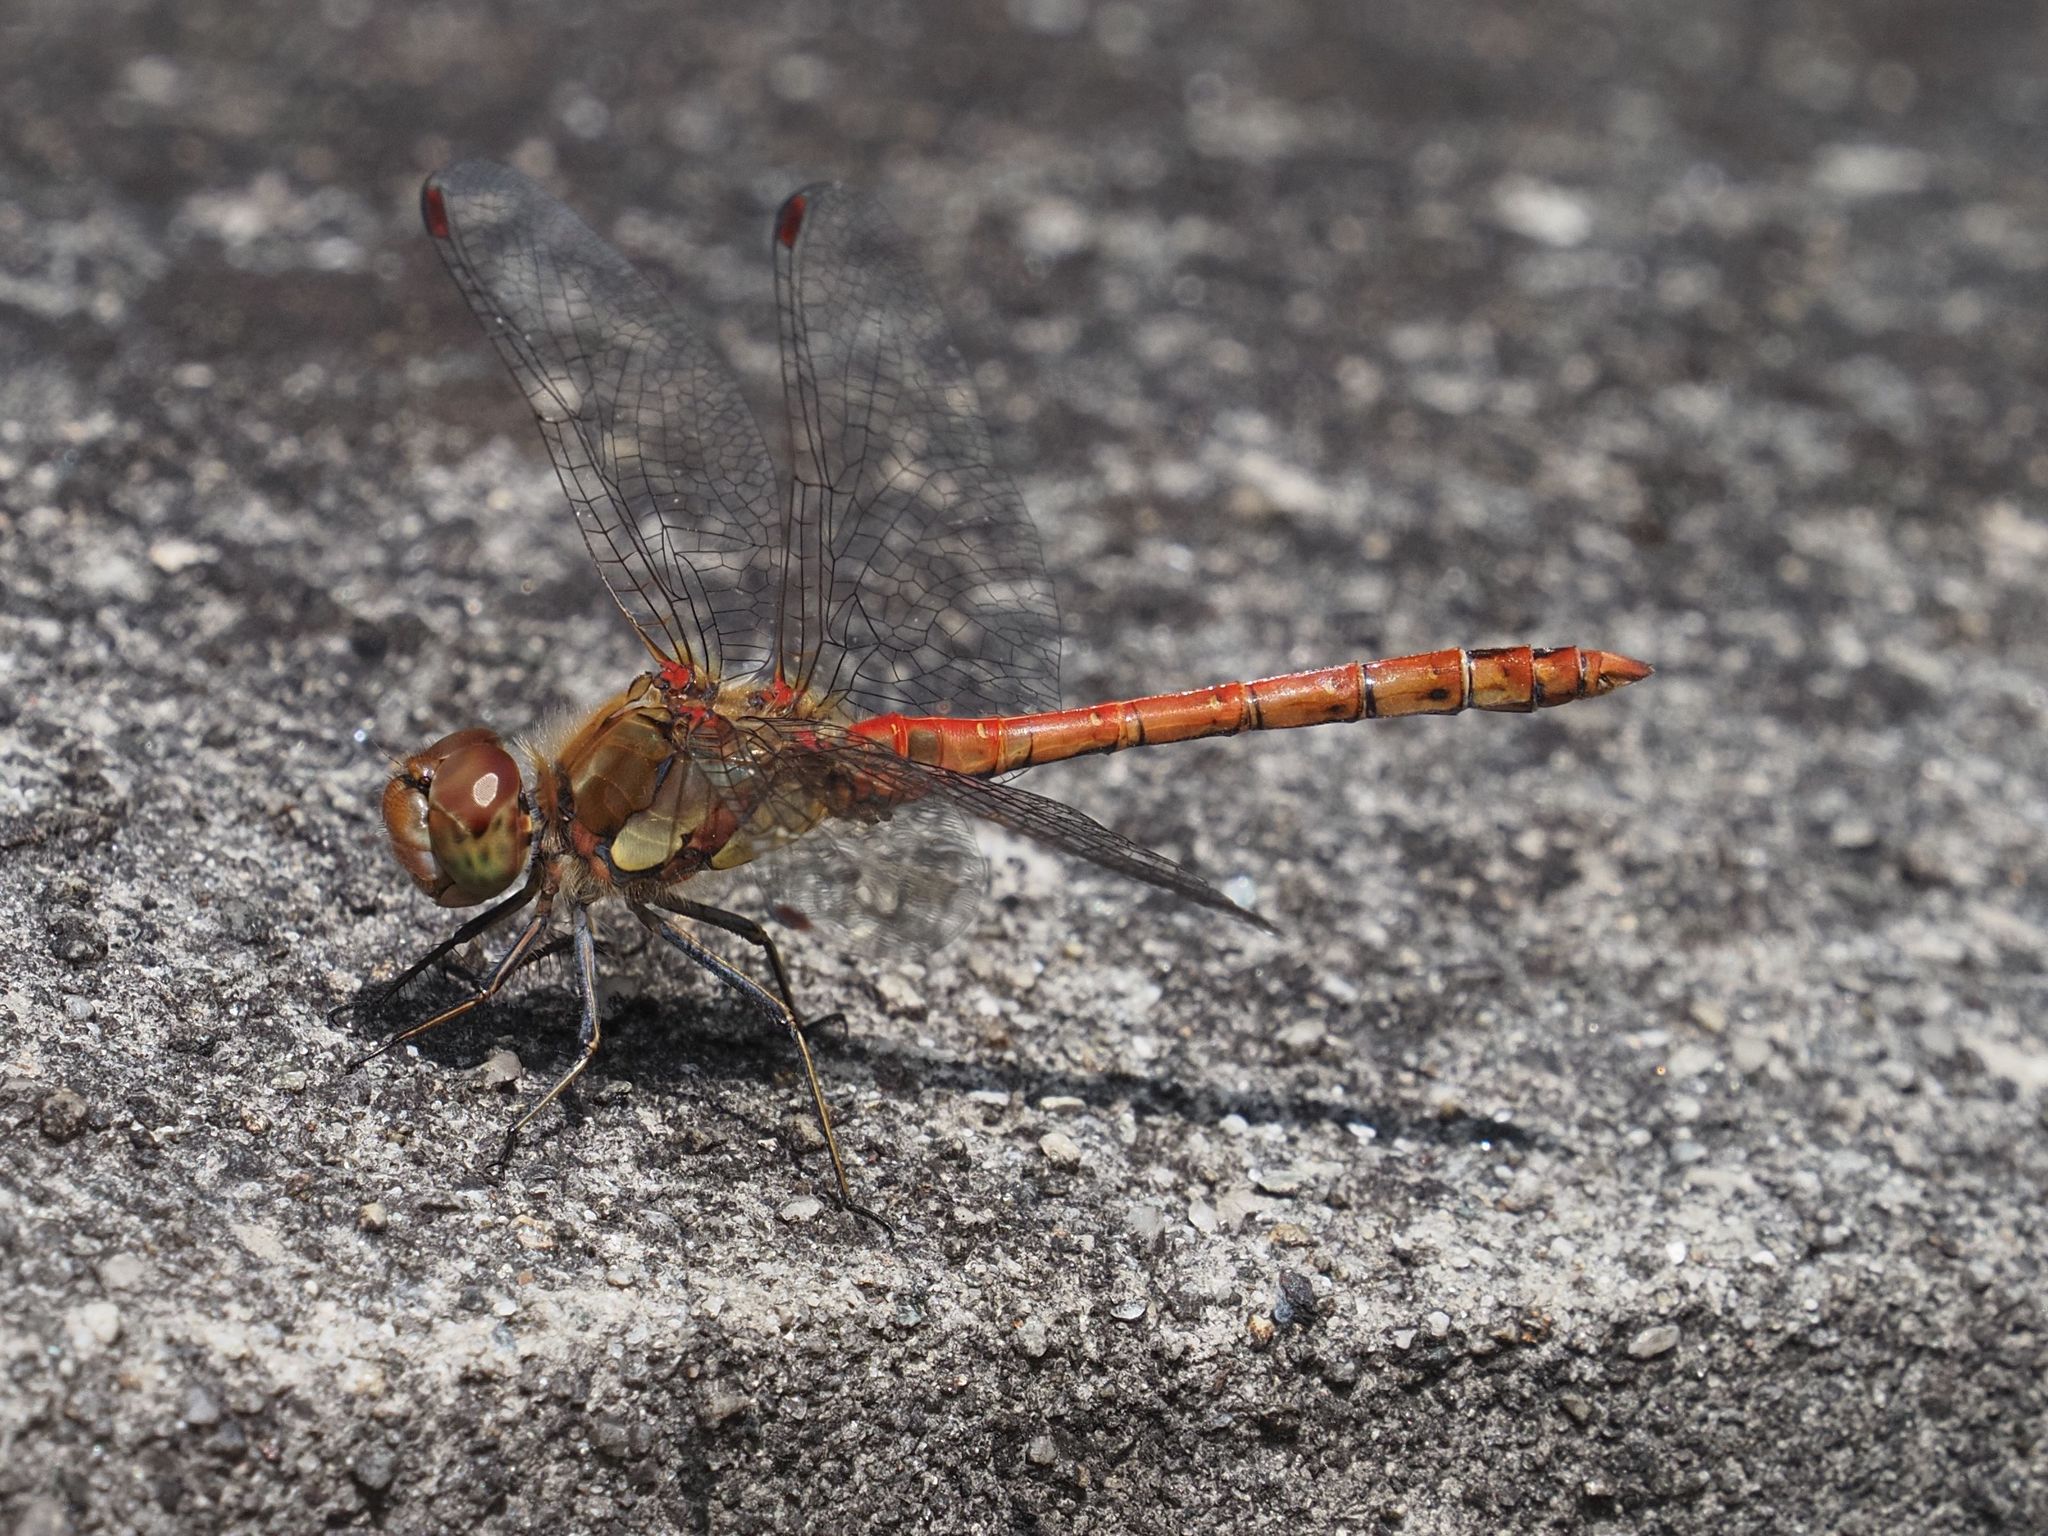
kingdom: Animalia
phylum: Arthropoda
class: Insecta
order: Odonata
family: Libellulidae
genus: Sympetrum
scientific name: Sympetrum striolatum
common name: Common darter
